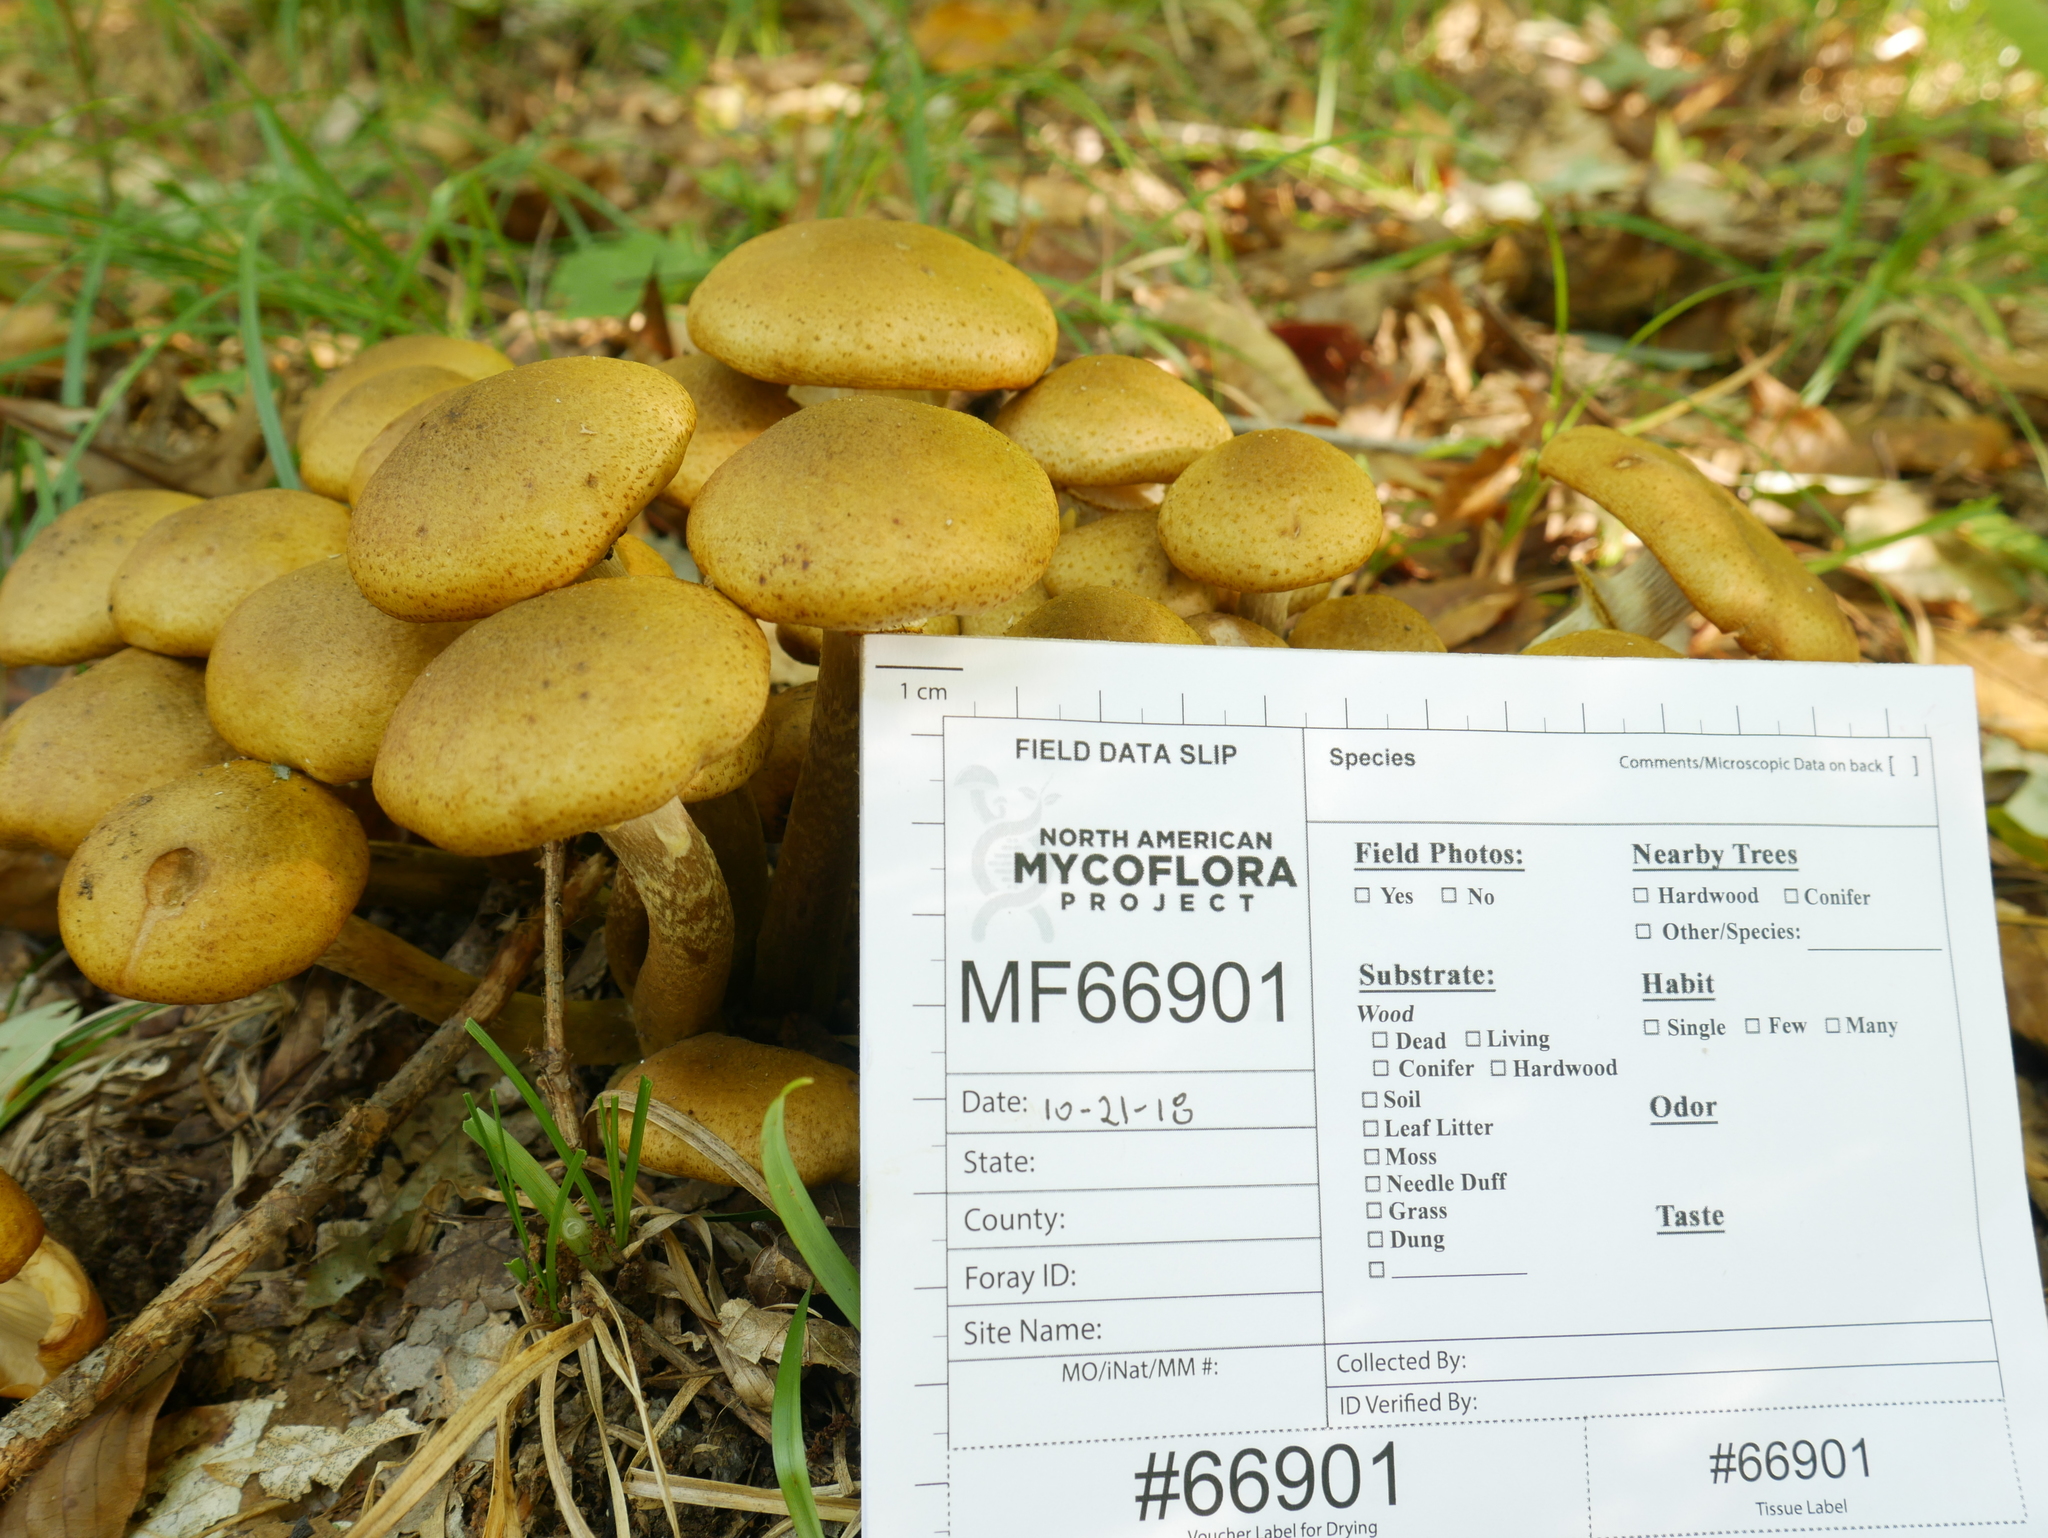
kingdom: Fungi
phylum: Basidiomycota
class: Agaricomycetes
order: Agaricales
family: Physalacriaceae
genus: Armillaria
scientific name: Armillaria mellea
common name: Honey fungus
